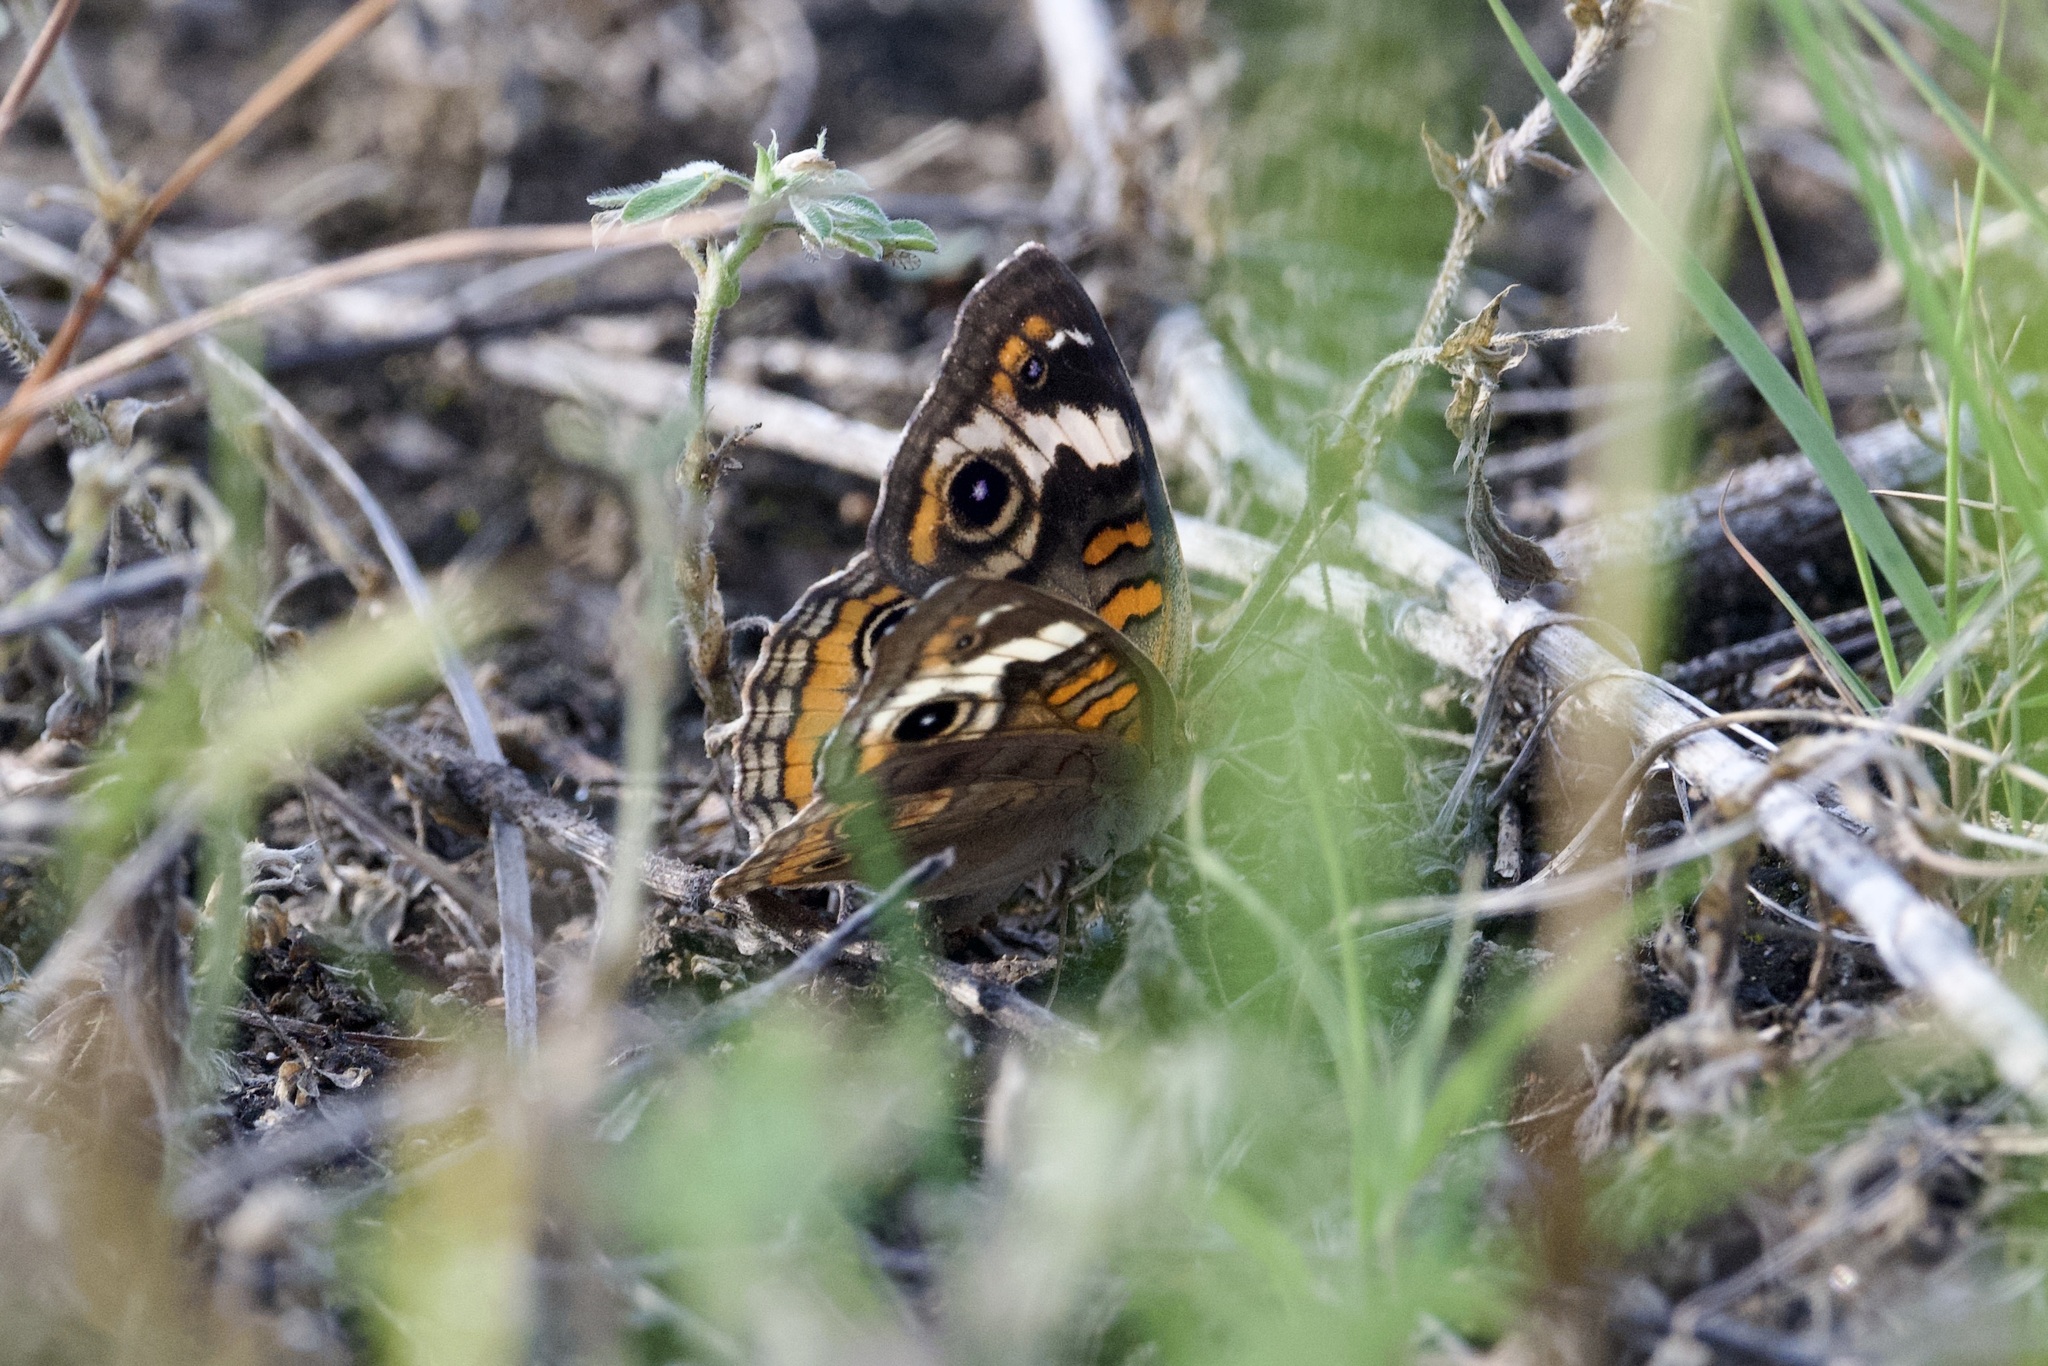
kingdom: Animalia
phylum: Arthropoda
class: Insecta
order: Lepidoptera
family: Nymphalidae
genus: Junonia
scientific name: Junonia coenia
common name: Common buckeye
